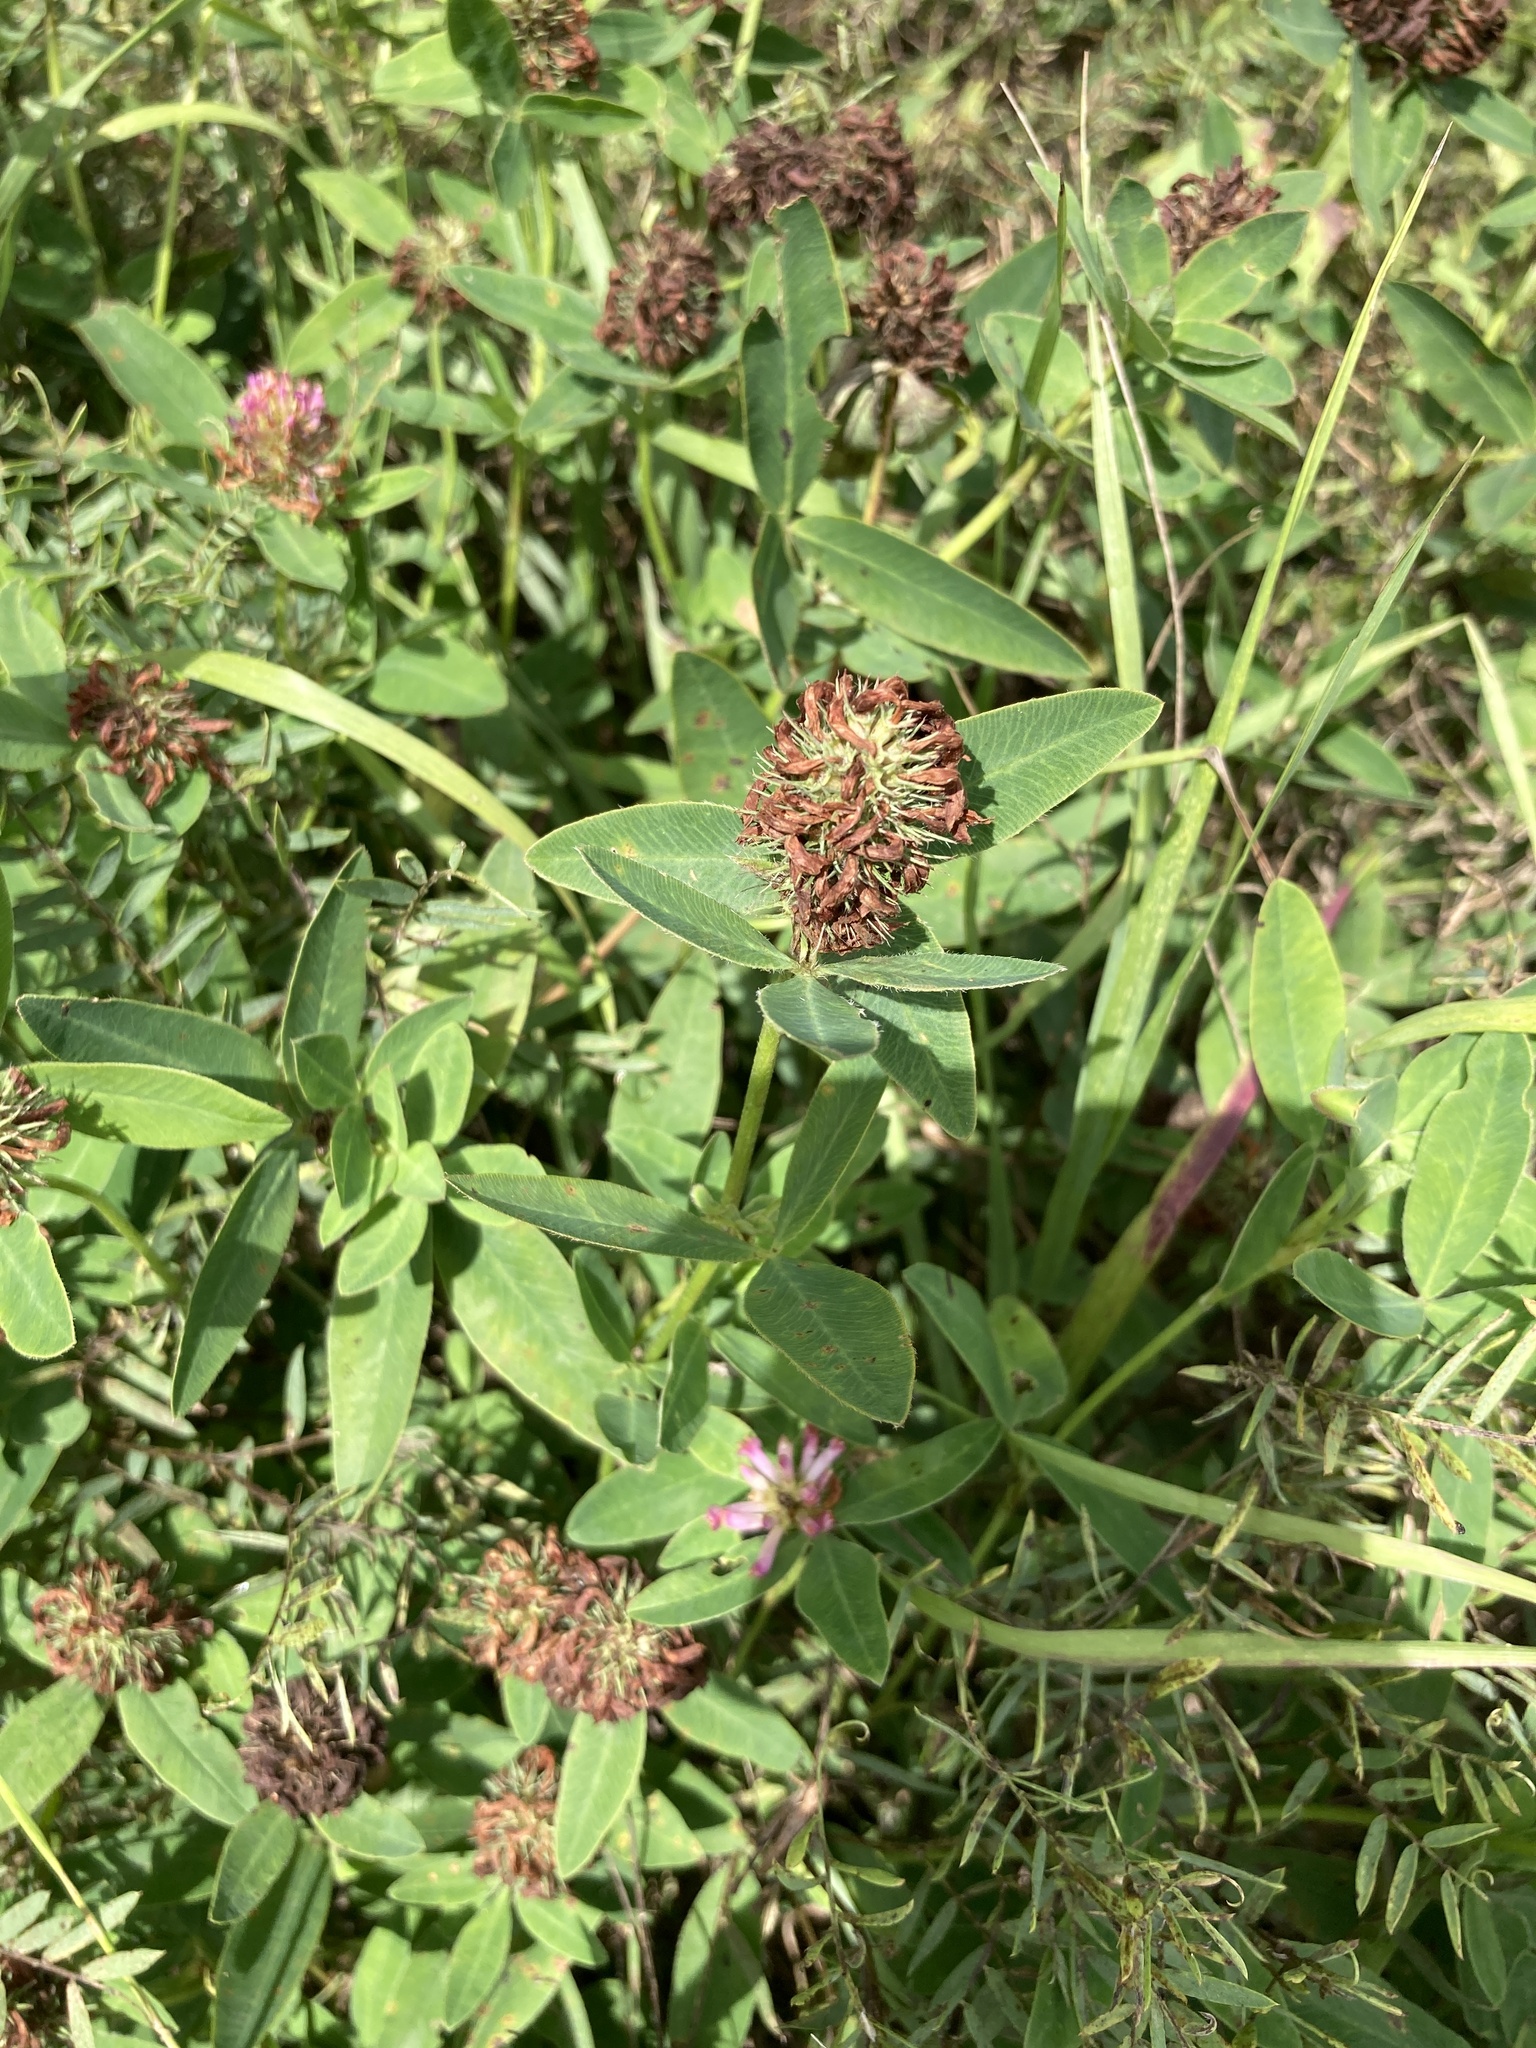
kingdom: Plantae
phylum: Tracheophyta
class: Magnoliopsida
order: Fabales
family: Fabaceae
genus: Trifolium
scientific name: Trifolium medium
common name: Zigzag clover
